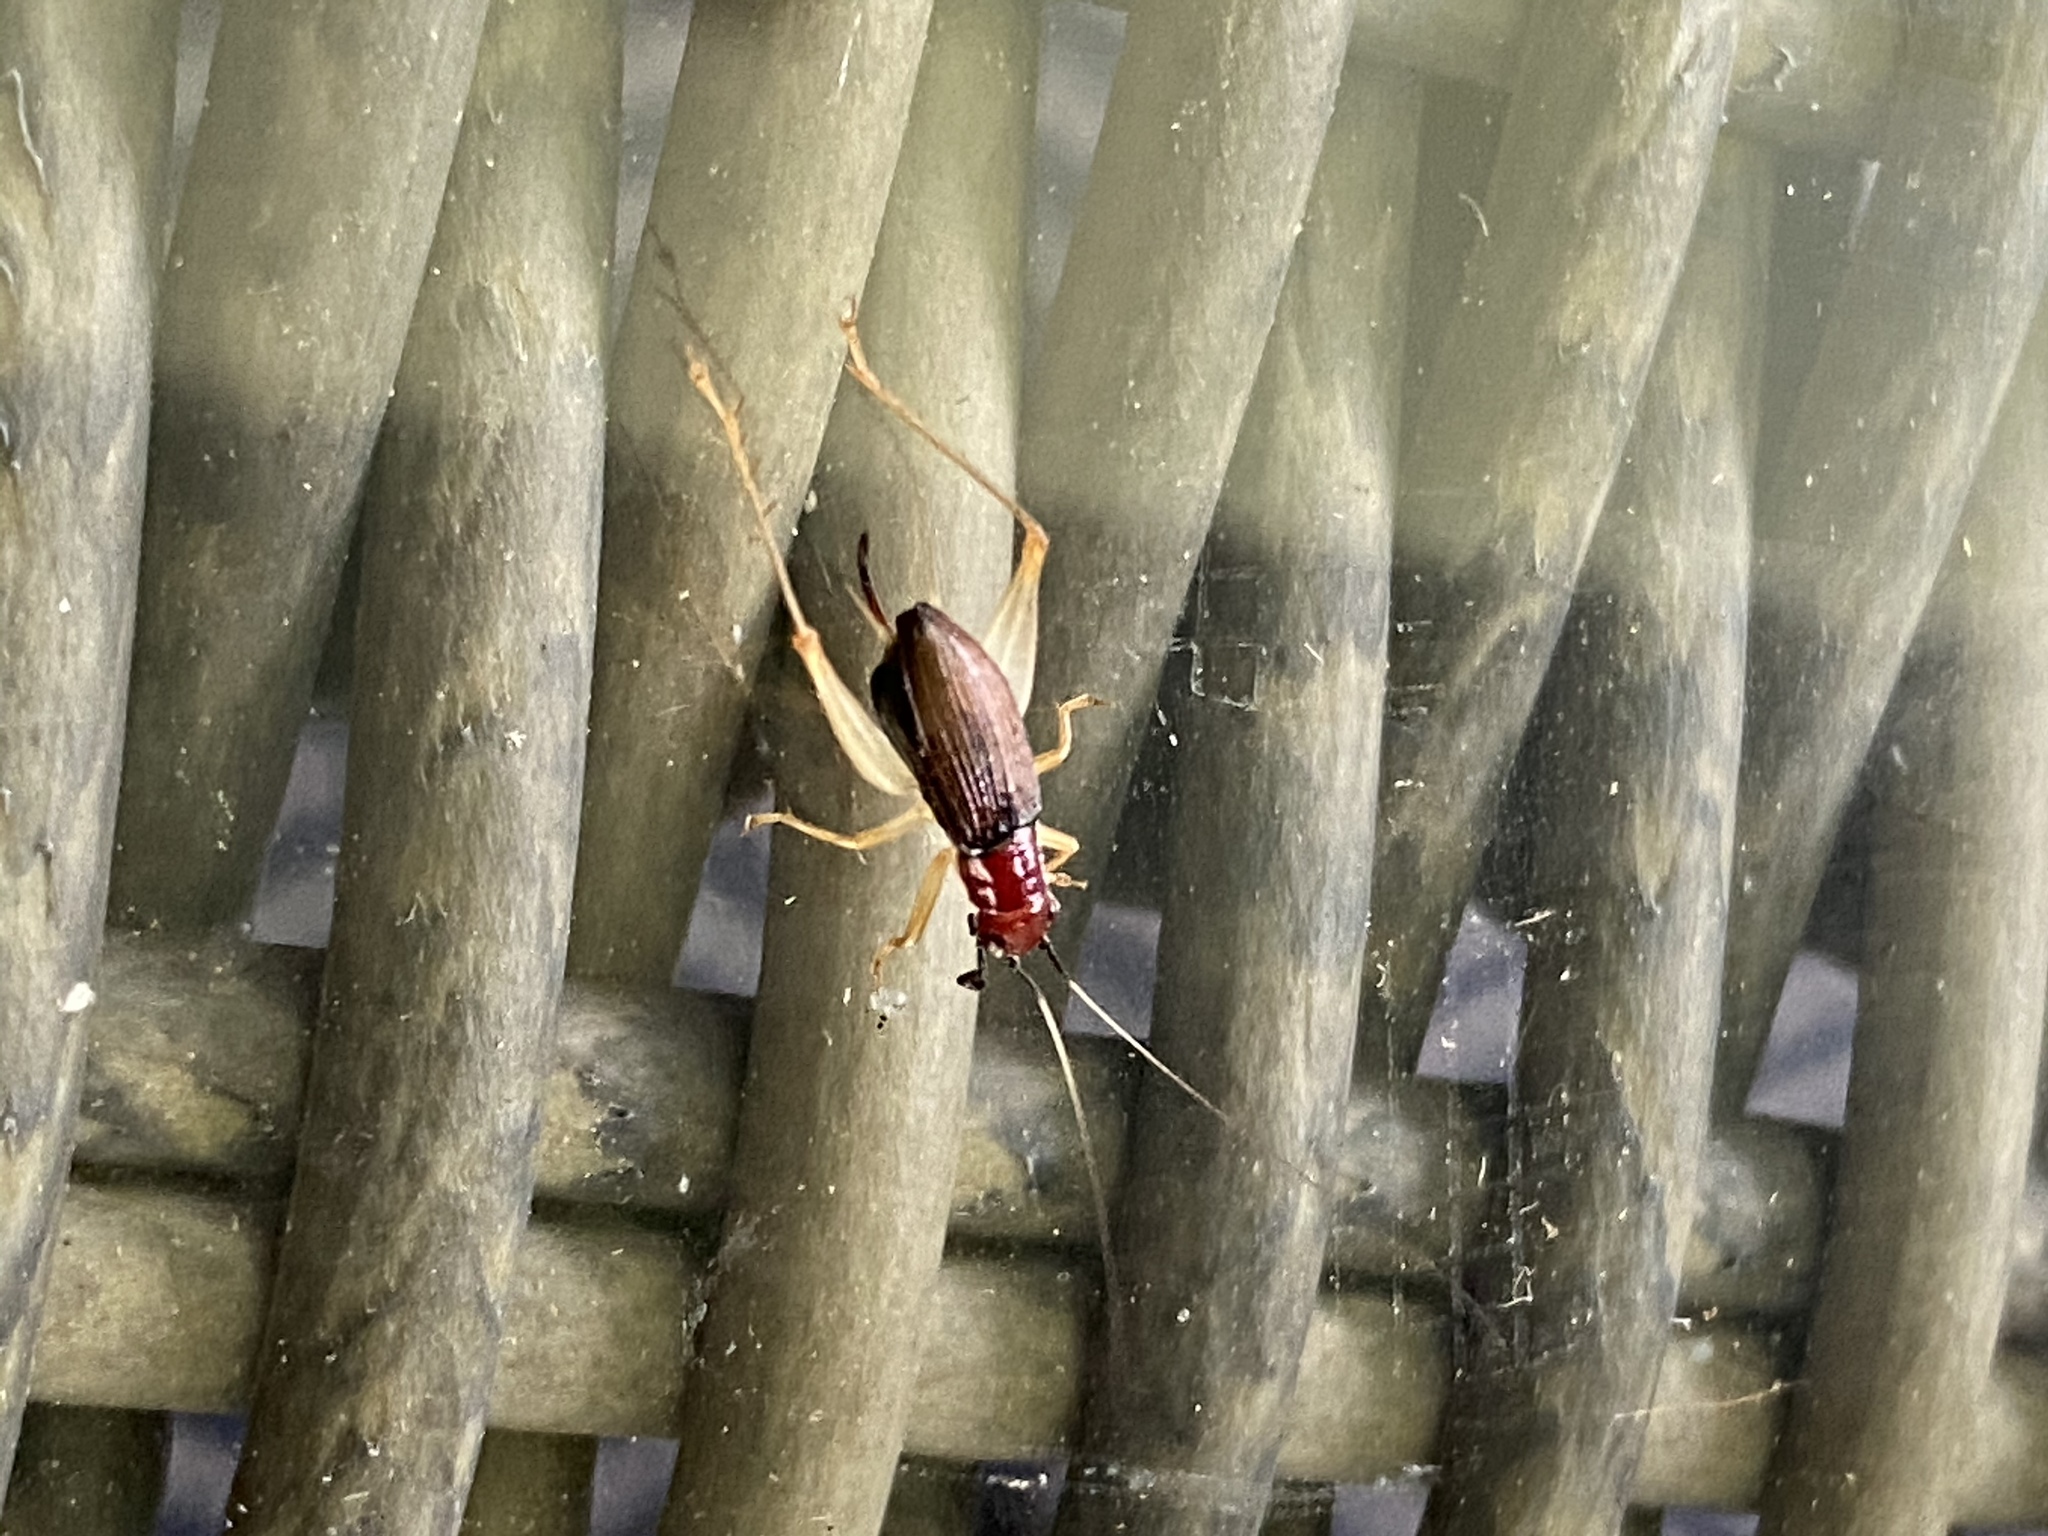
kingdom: Animalia
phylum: Arthropoda
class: Insecta
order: Orthoptera
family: Trigonidiidae
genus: Phyllopalpus
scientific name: Phyllopalpus pulchellus
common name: Handsome trig
